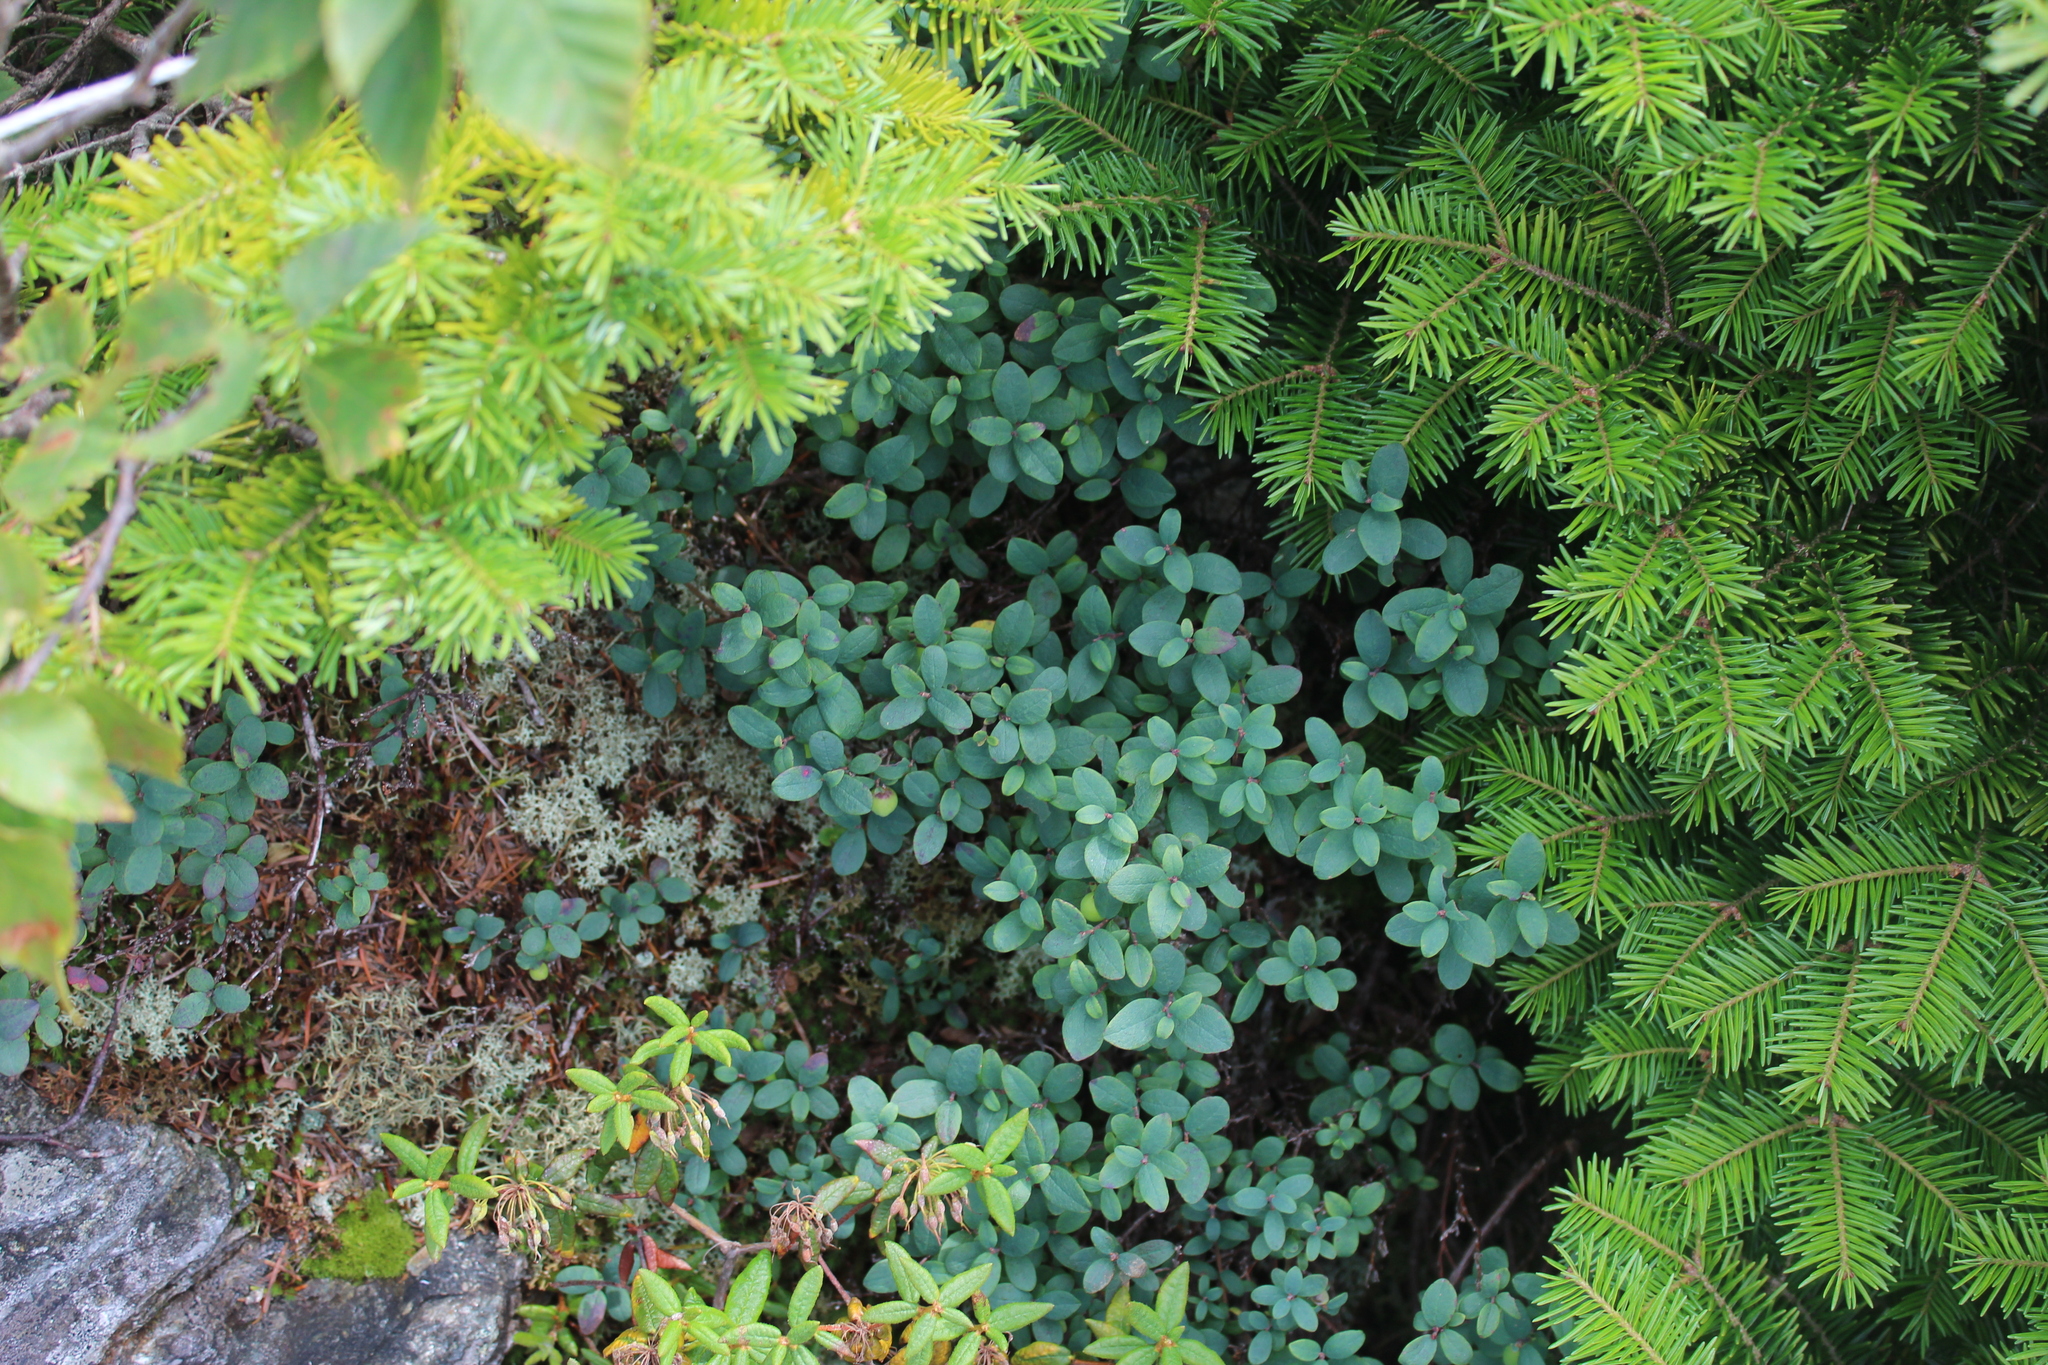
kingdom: Plantae
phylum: Tracheophyta
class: Magnoliopsida
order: Ericales
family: Ericaceae
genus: Vaccinium
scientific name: Vaccinium uliginosum
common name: Bog bilberry
